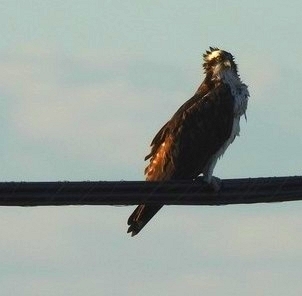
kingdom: Animalia
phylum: Chordata
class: Aves
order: Accipitriformes
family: Pandionidae
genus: Pandion
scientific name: Pandion haliaetus
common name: Osprey
